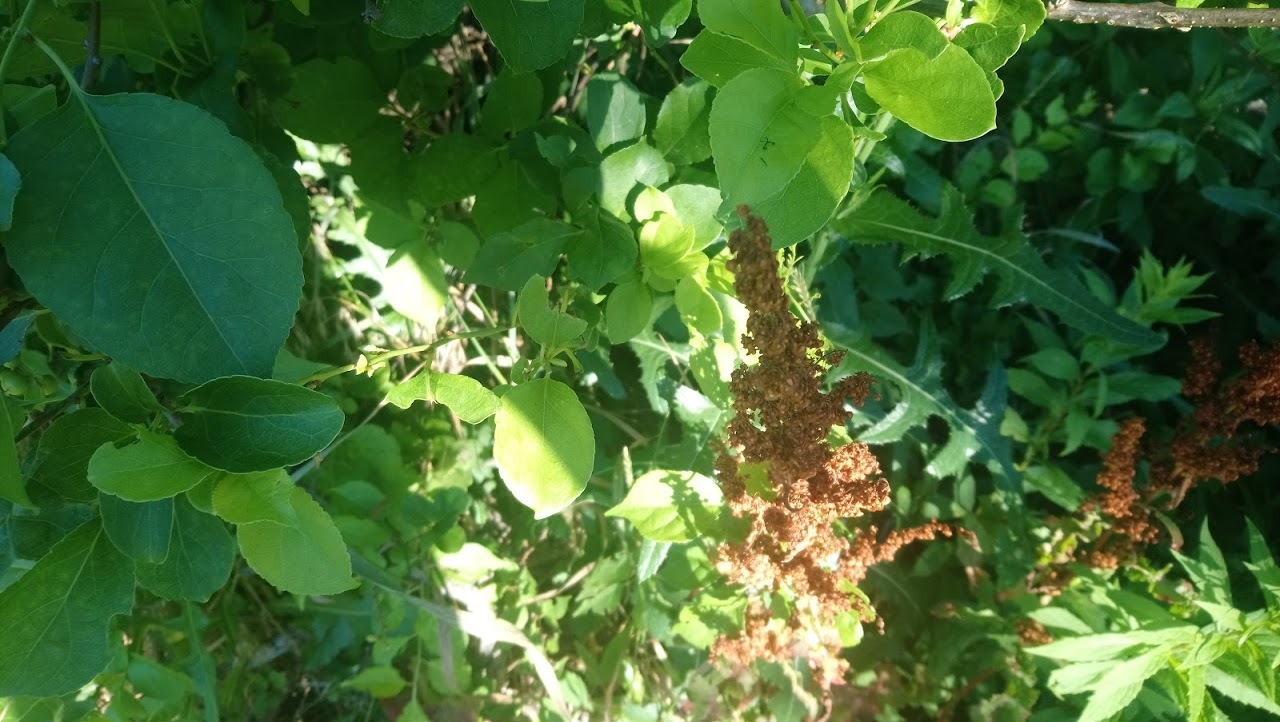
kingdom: Plantae
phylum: Tracheophyta
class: Magnoliopsida
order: Caryophyllales
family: Polygonaceae
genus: Rumex
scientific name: Rumex crispus
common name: Curled dock
